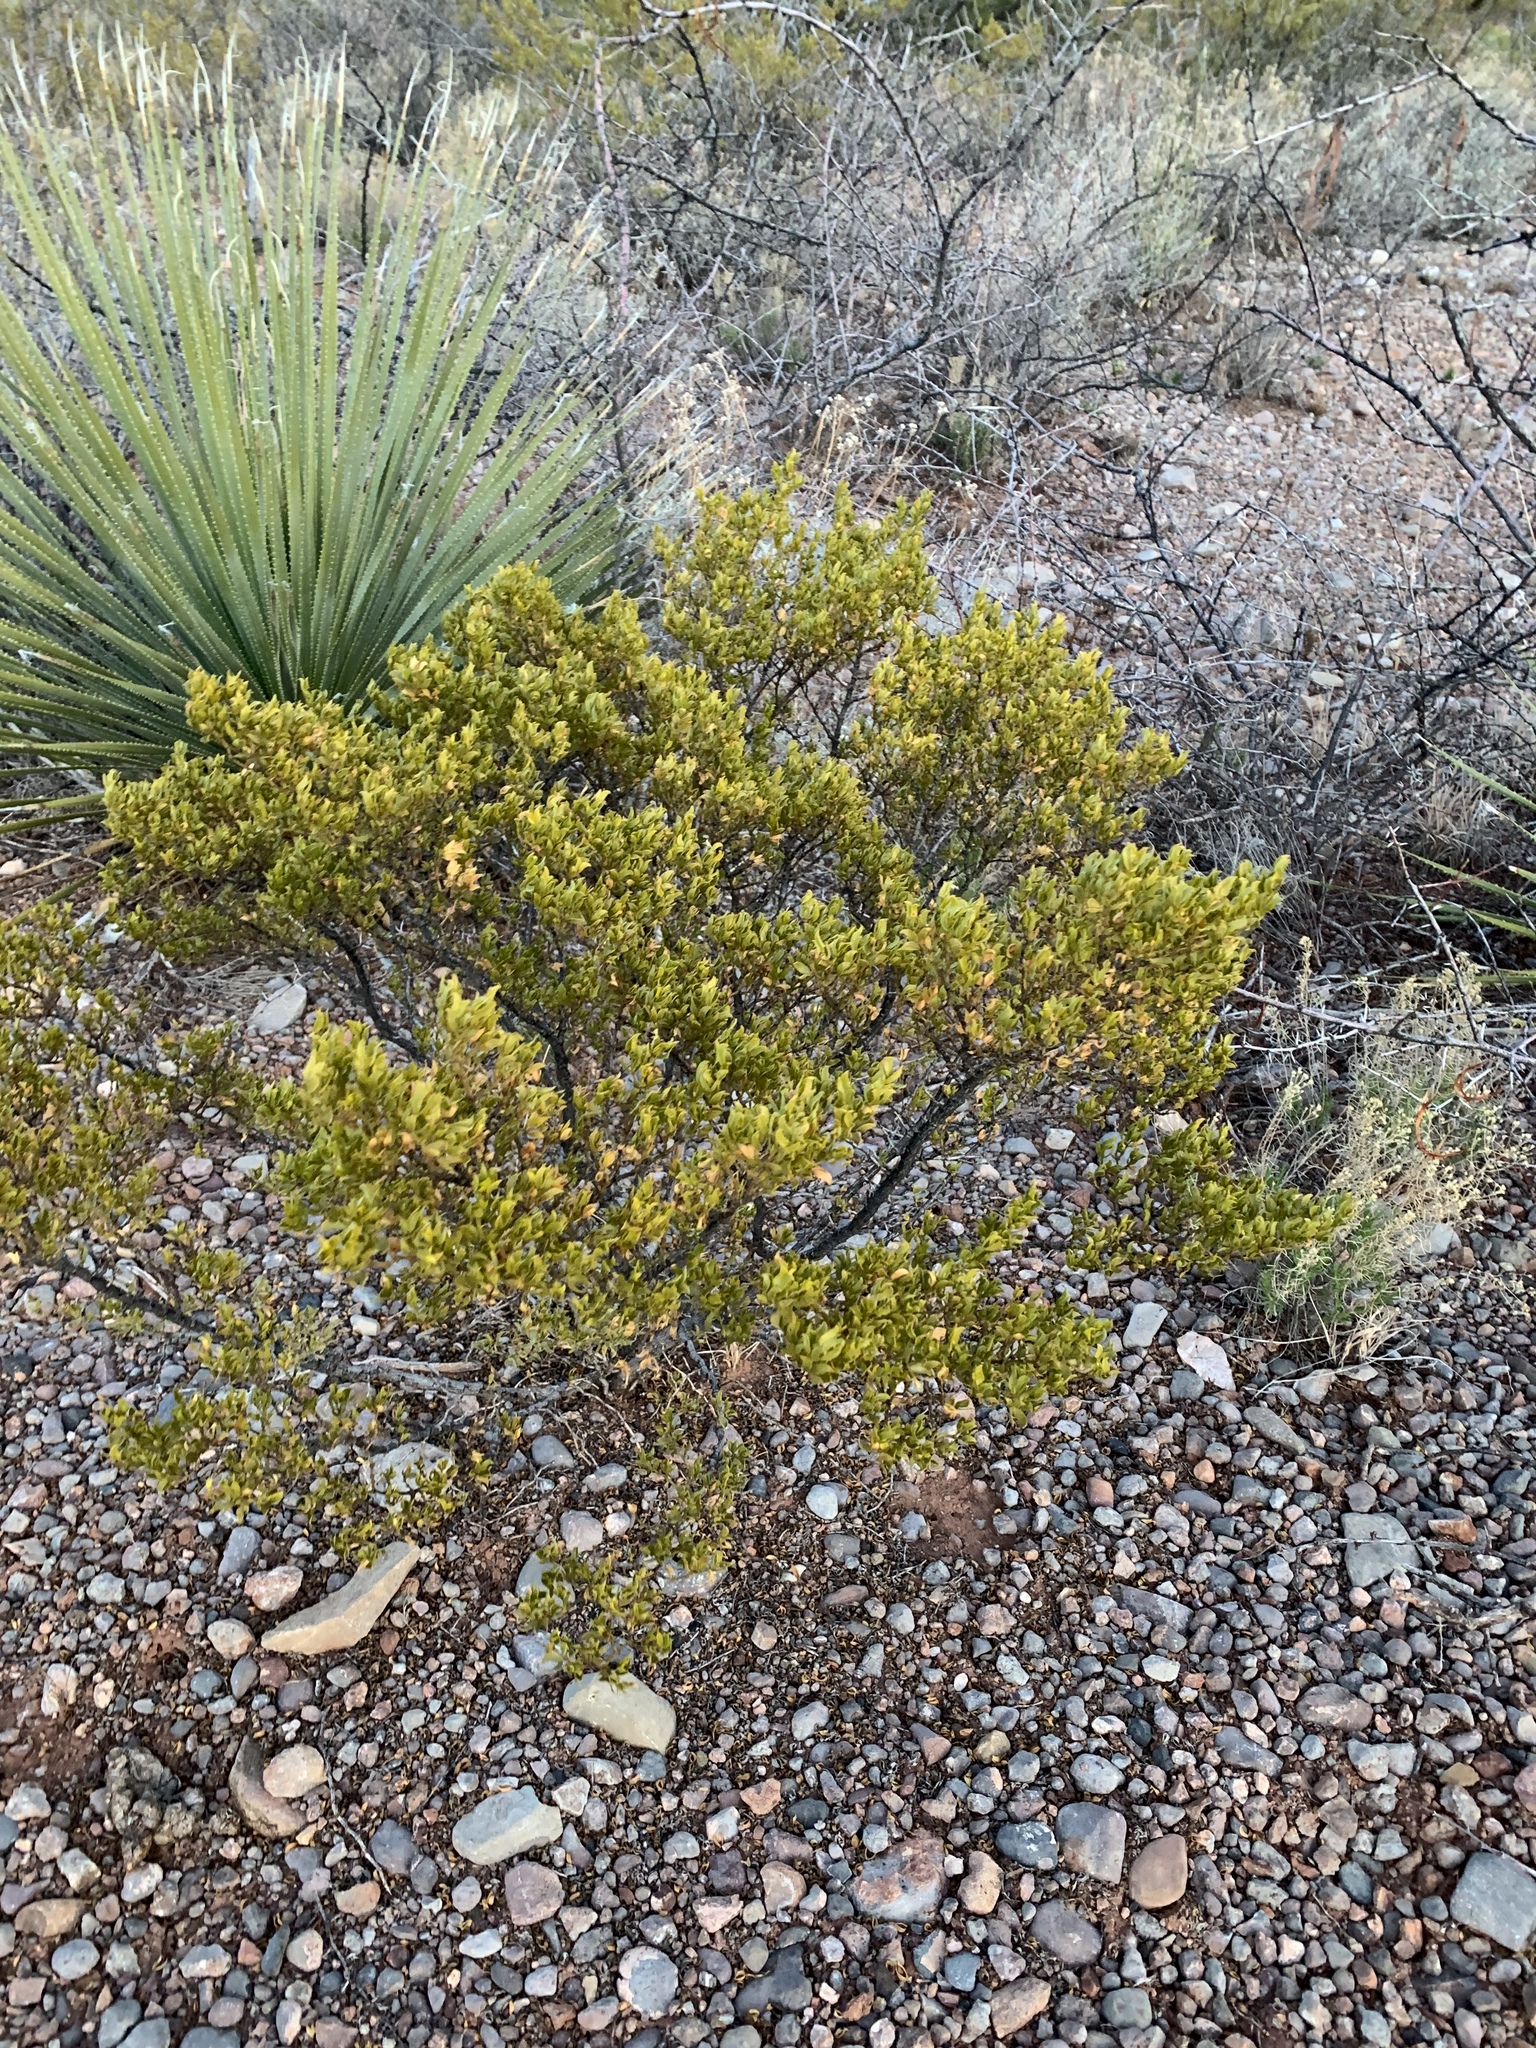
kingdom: Plantae
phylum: Tracheophyta
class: Magnoliopsida
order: Zygophyllales
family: Zygophyllaceae
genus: Larrea
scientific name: Larrea tridentata
